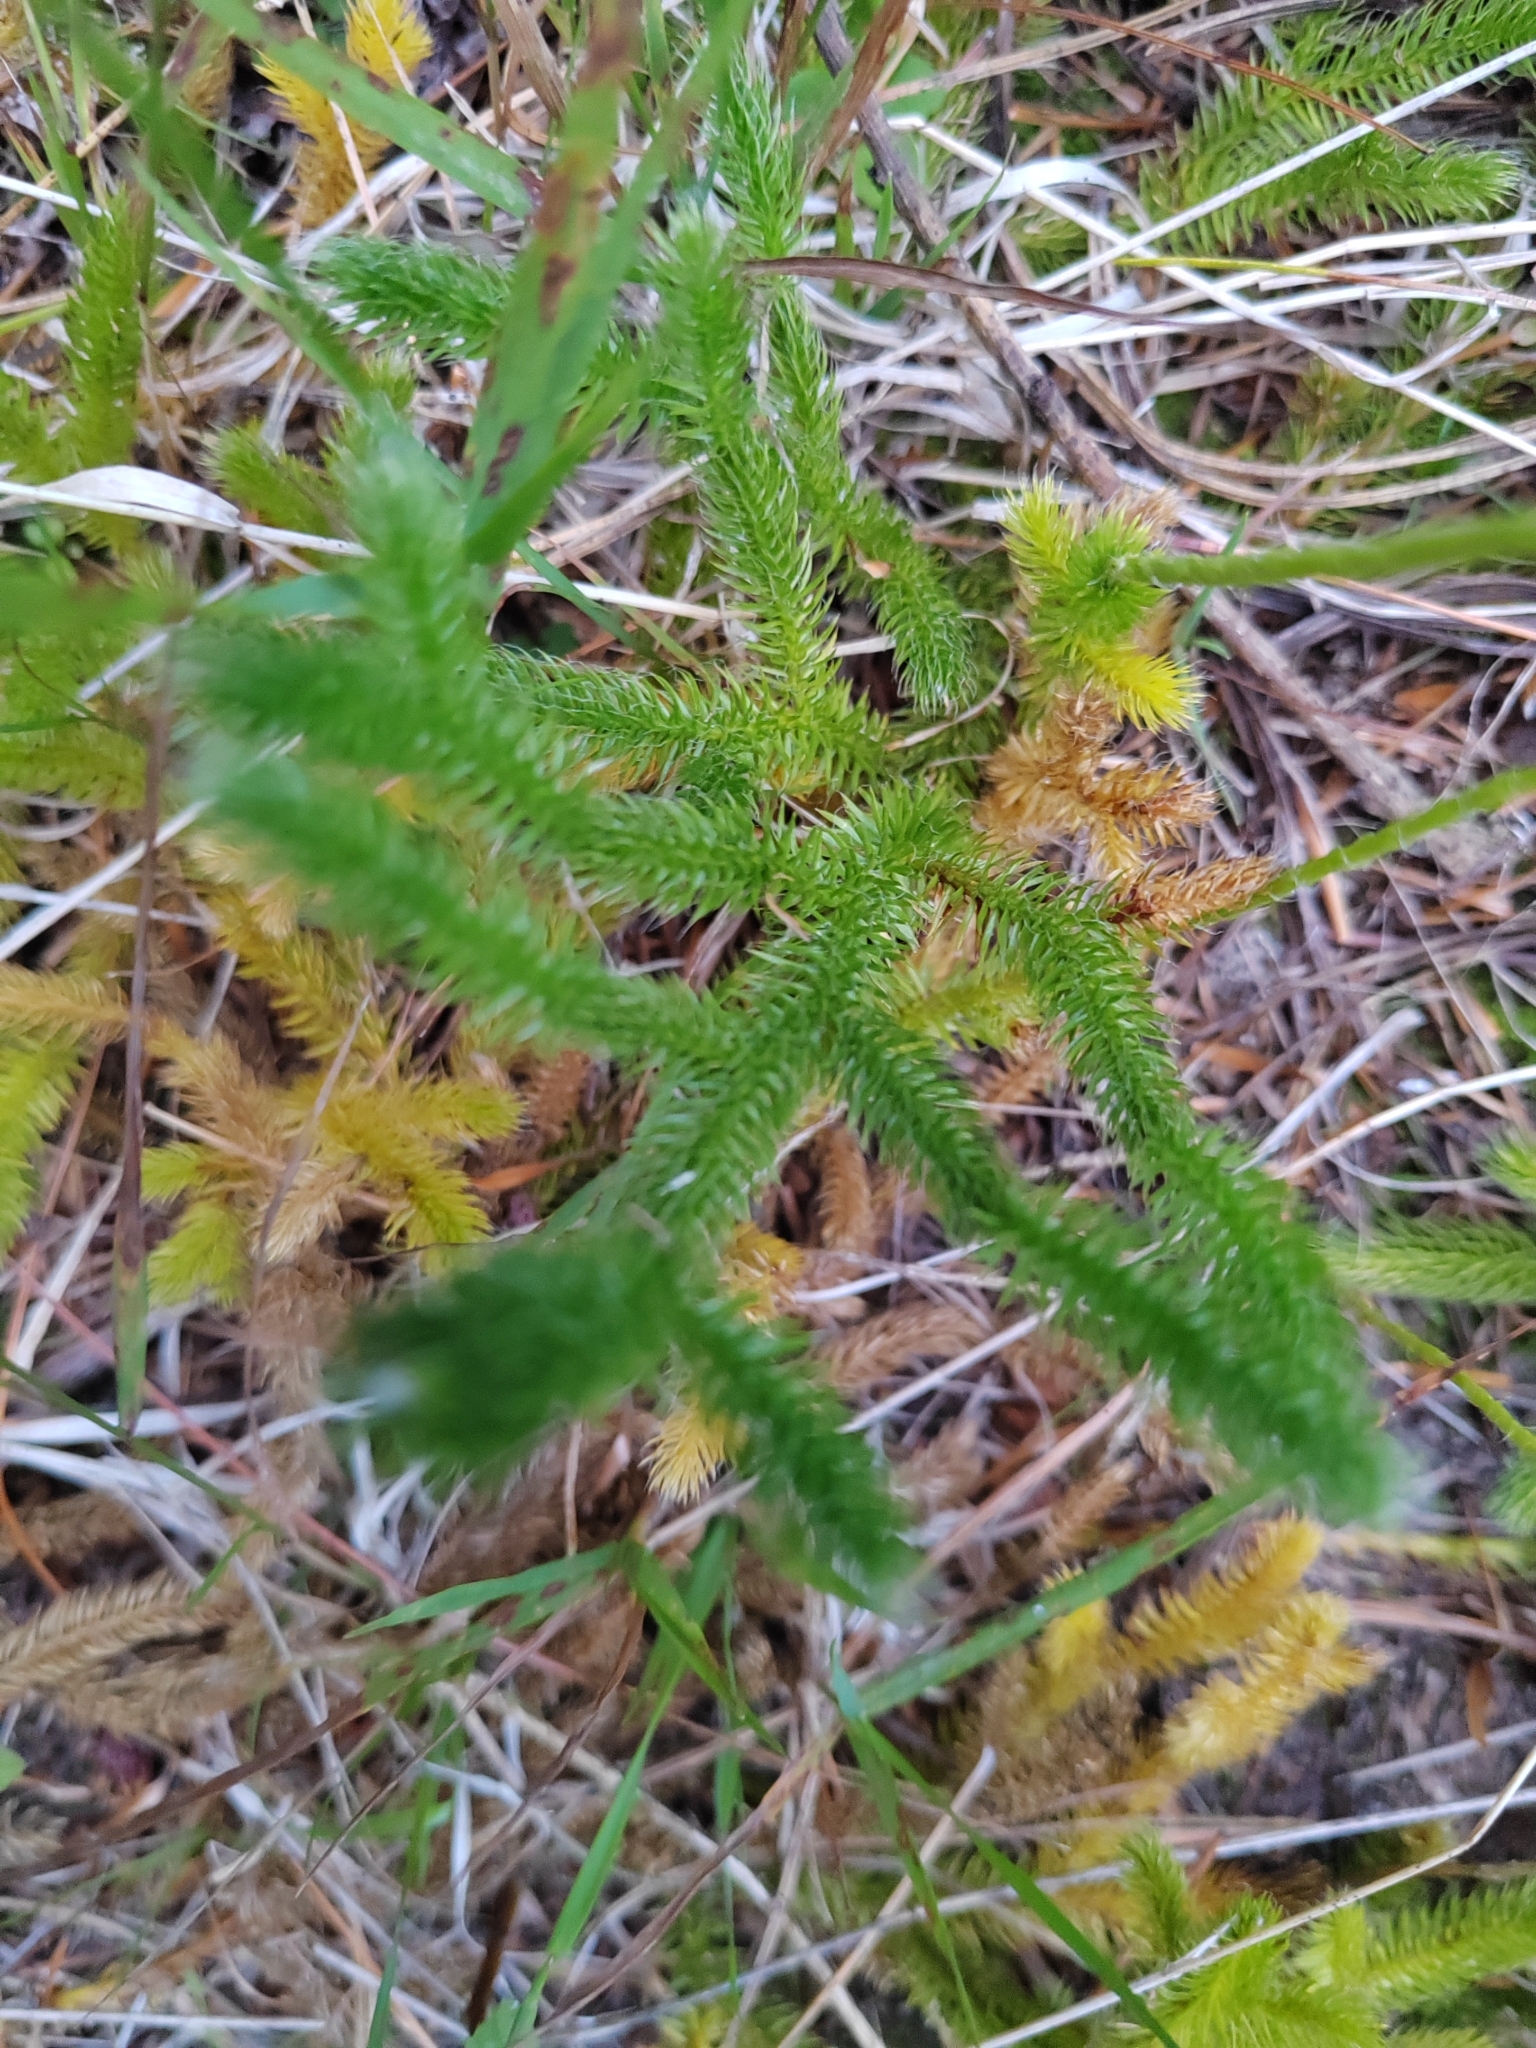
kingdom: Plantae
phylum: Tracheophyta
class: Lycopodiopsida
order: Lycopodiales
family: Lycopodiaceae
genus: Lycopodium
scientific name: Lycopodium clavatum
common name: Stag's-horn clubmoss
